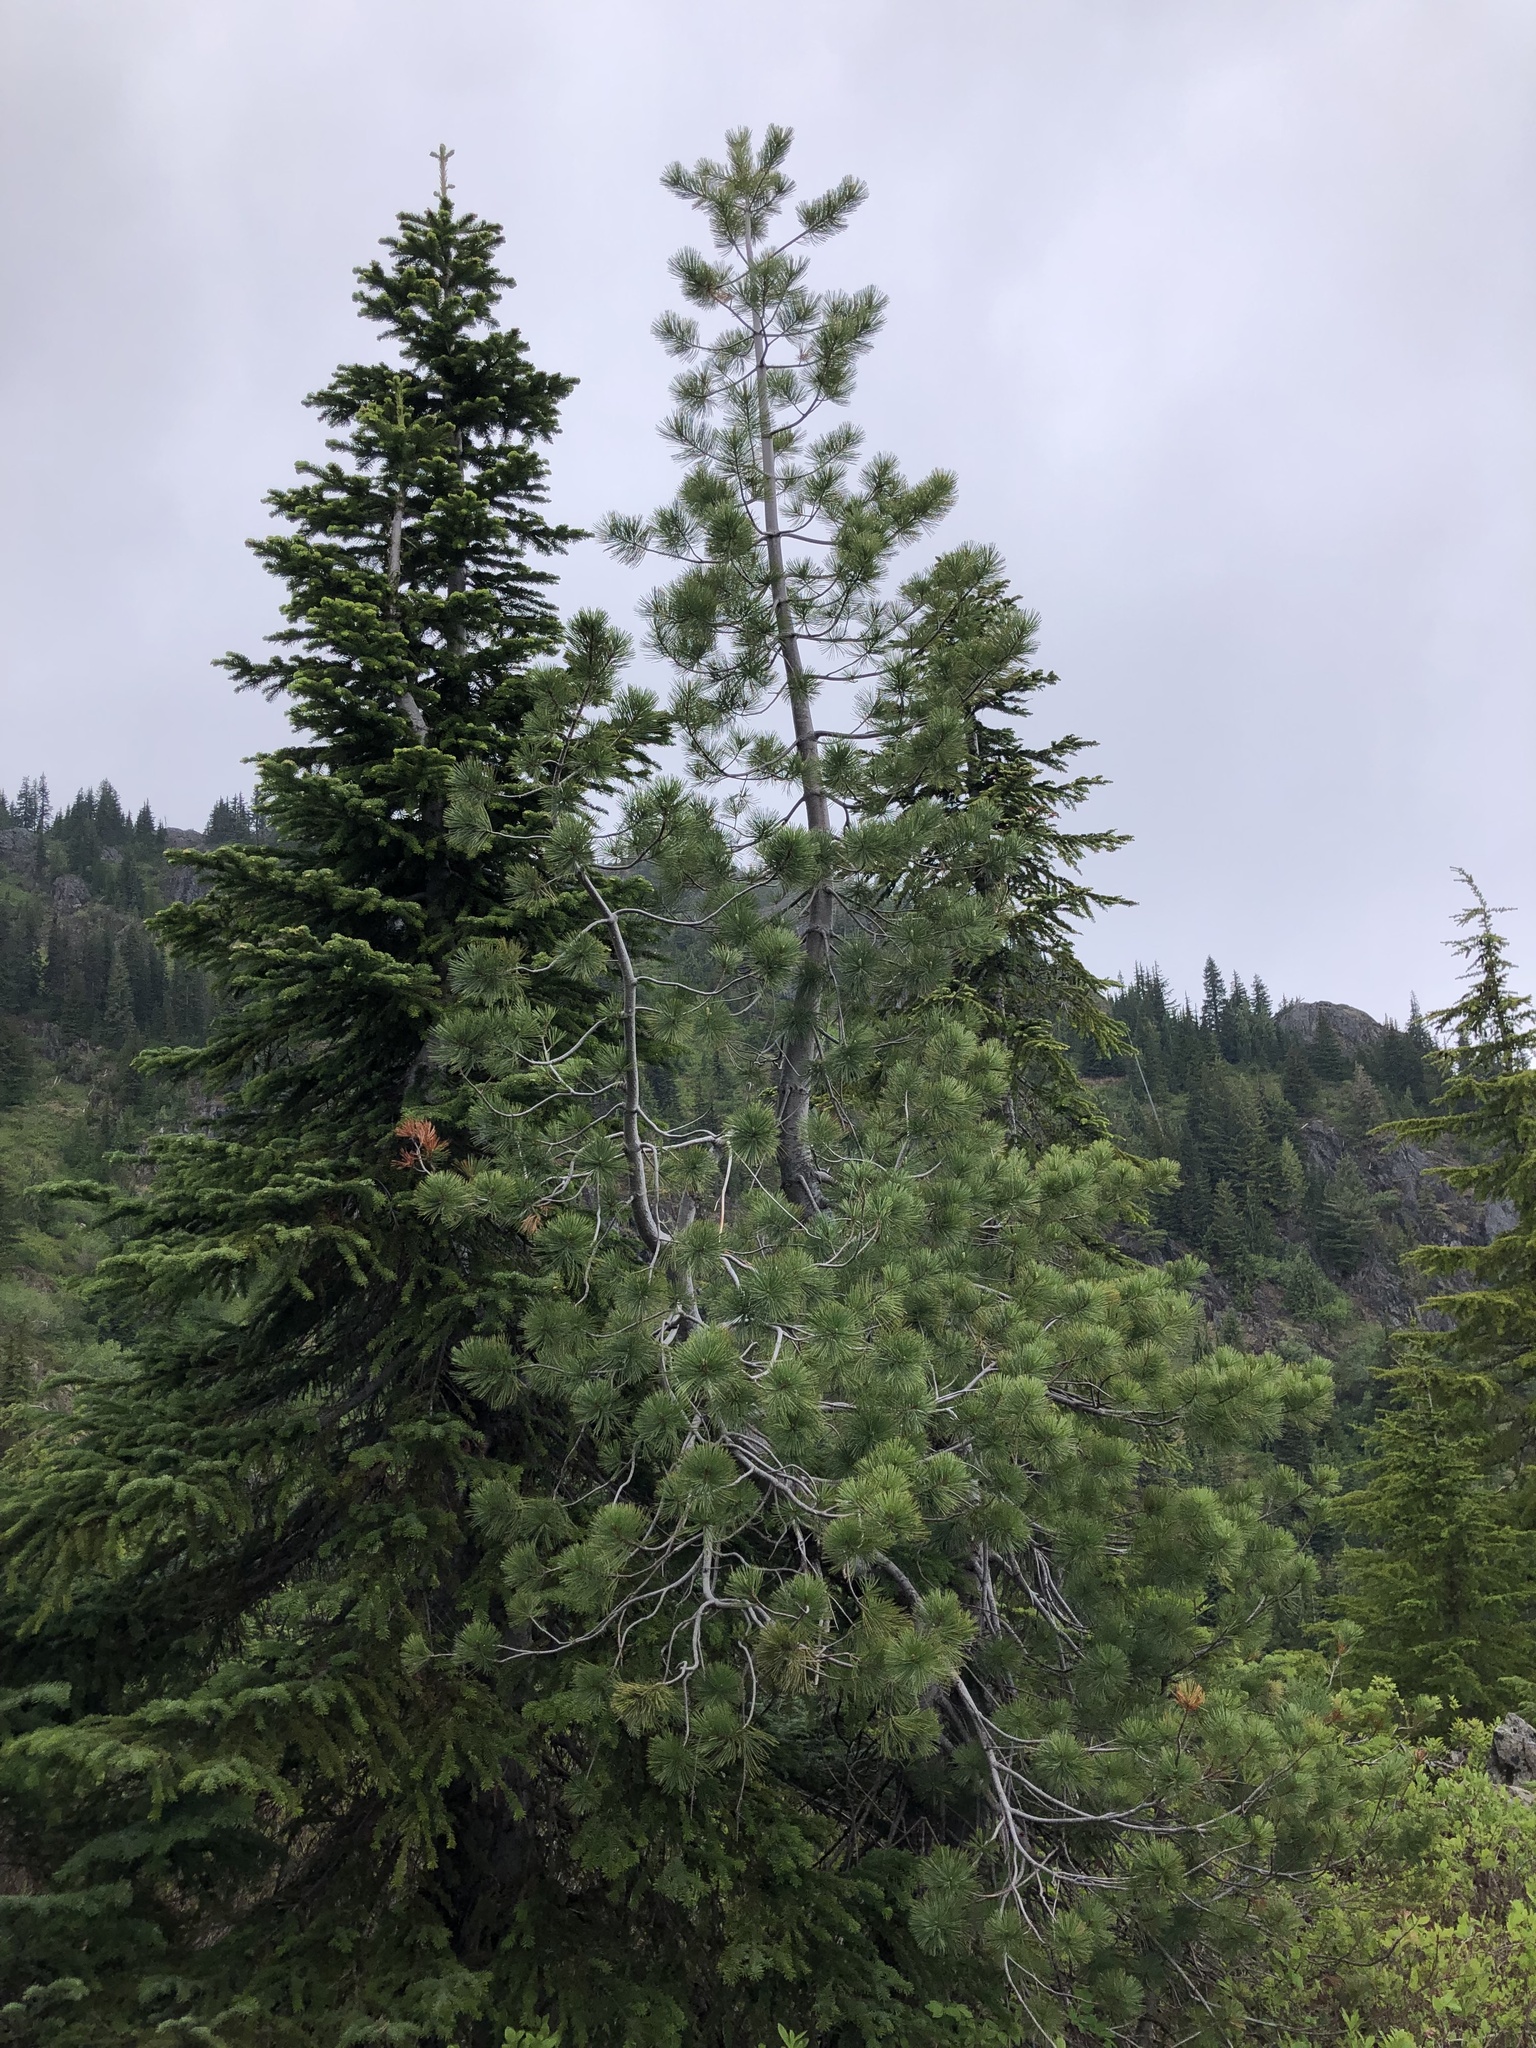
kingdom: Plantae
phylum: Tracheophyta
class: Pinopsida
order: Pinales
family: Pinaceae
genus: Pinus
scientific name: Pinus monticola
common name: Western white pine
